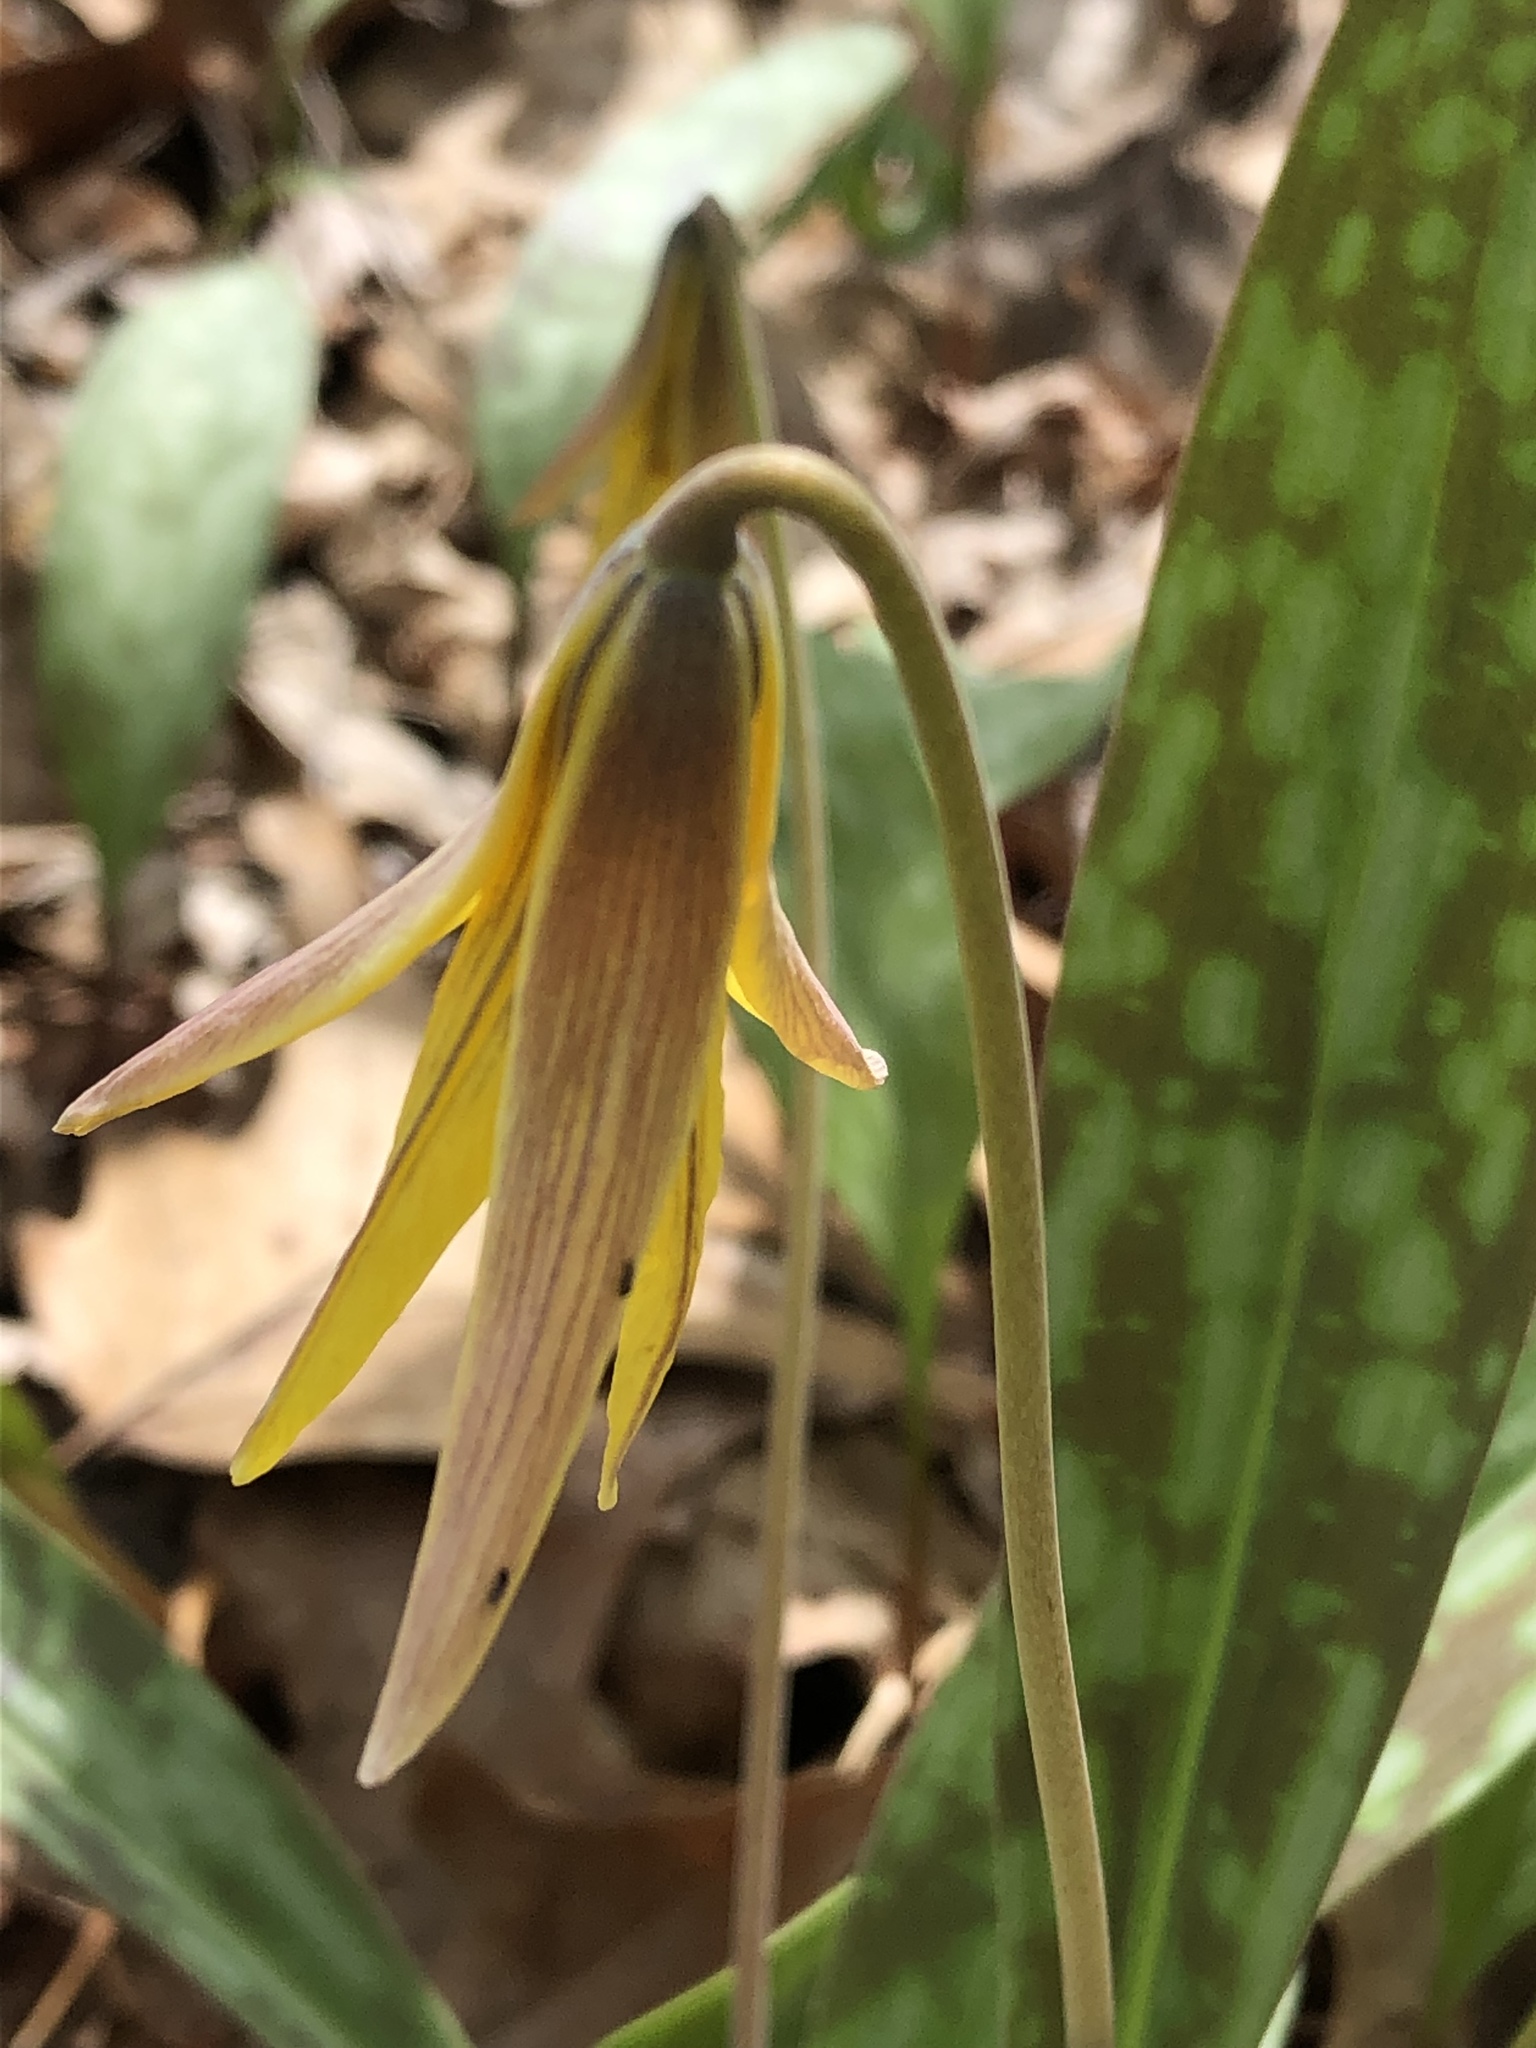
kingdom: Plantae
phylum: Tracheophyta
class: Liliopsida
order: Liliales
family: Liliaceae
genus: Erythronium
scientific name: Erythronium americanum
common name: Yellow adder's-tongue
